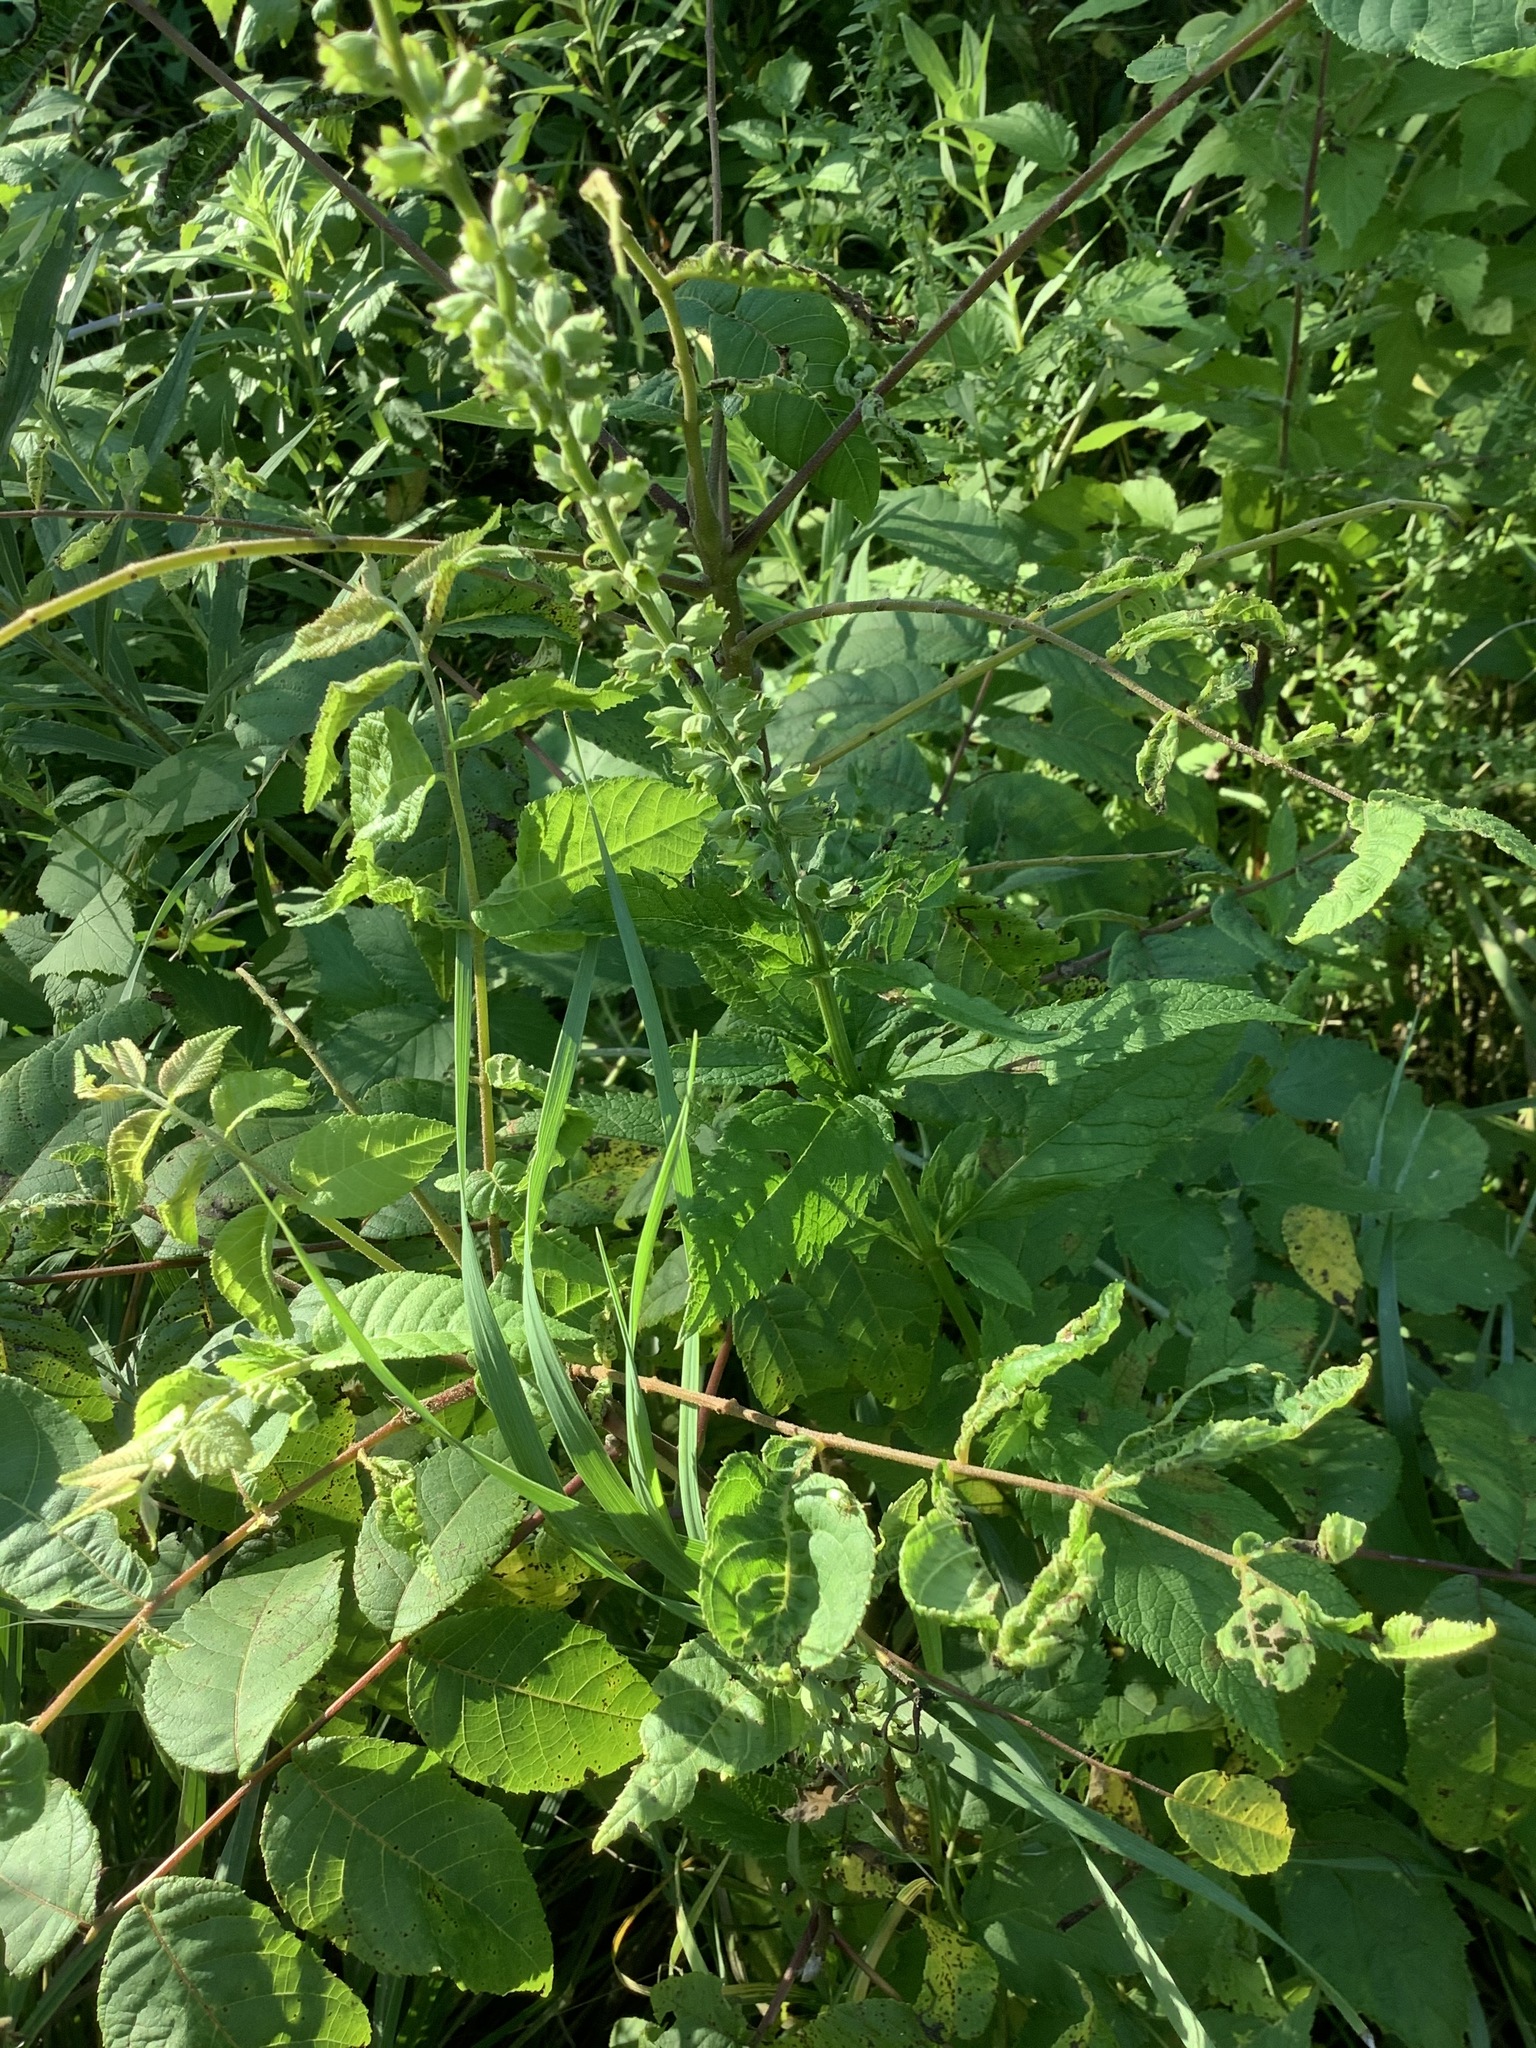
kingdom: Plantae
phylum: Tracheophyta
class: Magnoliopsida
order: Lamiales
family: Lamiaceae
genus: Teucrium
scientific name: Teucrium canadense
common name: American germander
